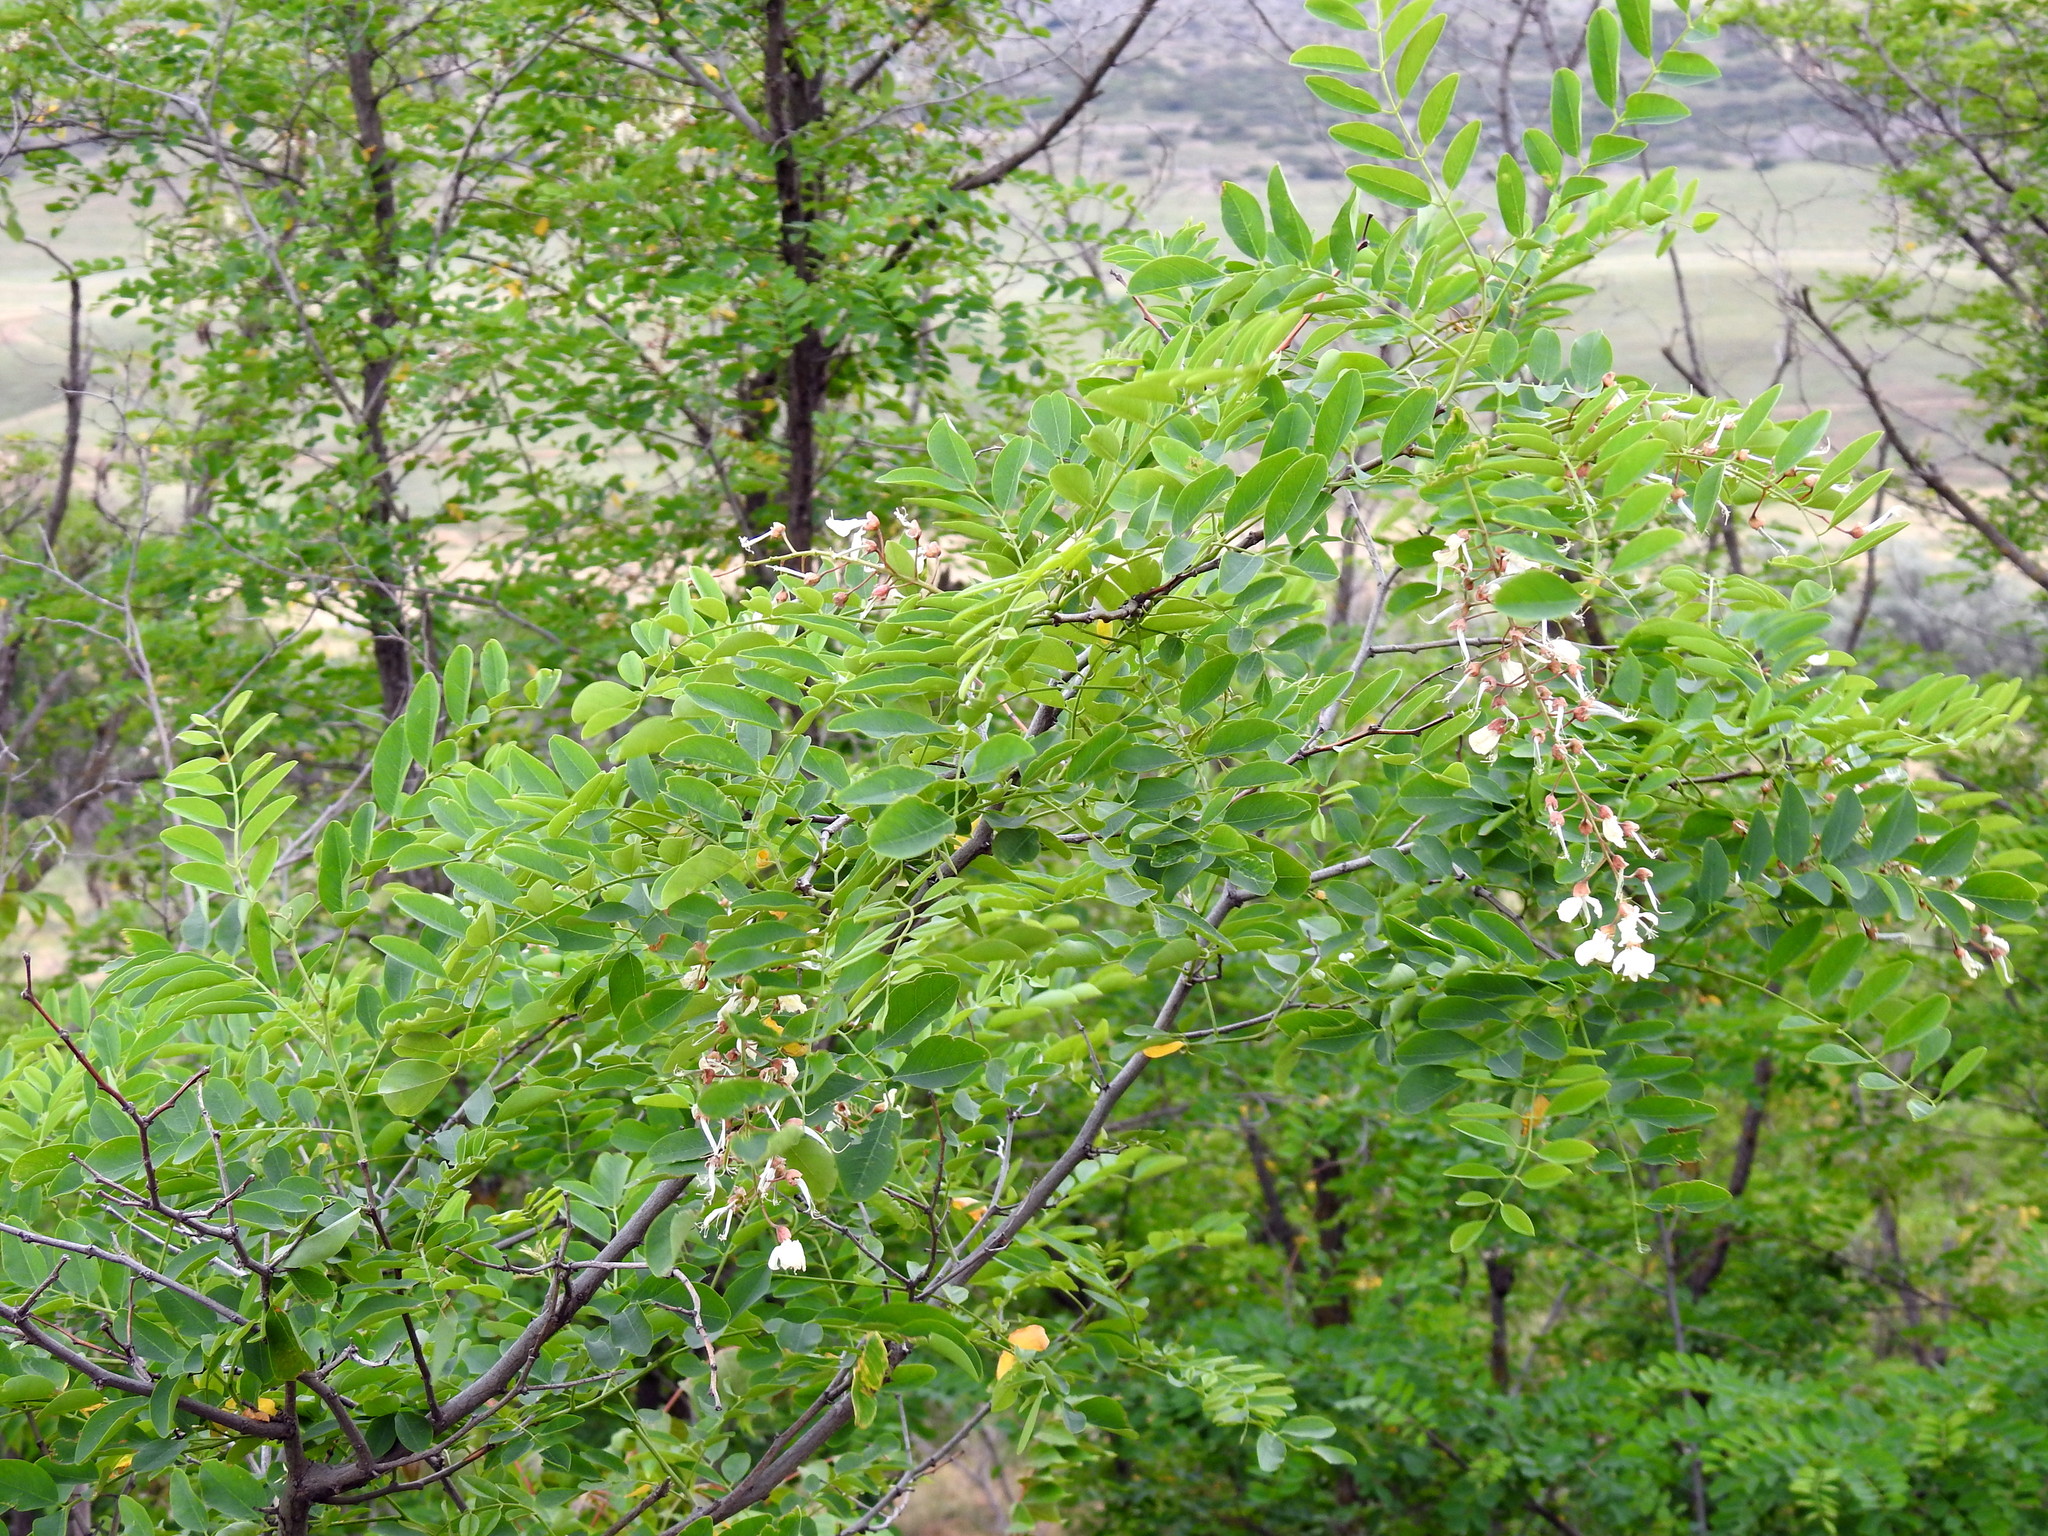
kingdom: Plantae
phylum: Tracheophyta
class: Magnoliopsida
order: Fabales
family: Fabaceae
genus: Robinia
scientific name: Robinia pseudoacacia
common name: Black locust
